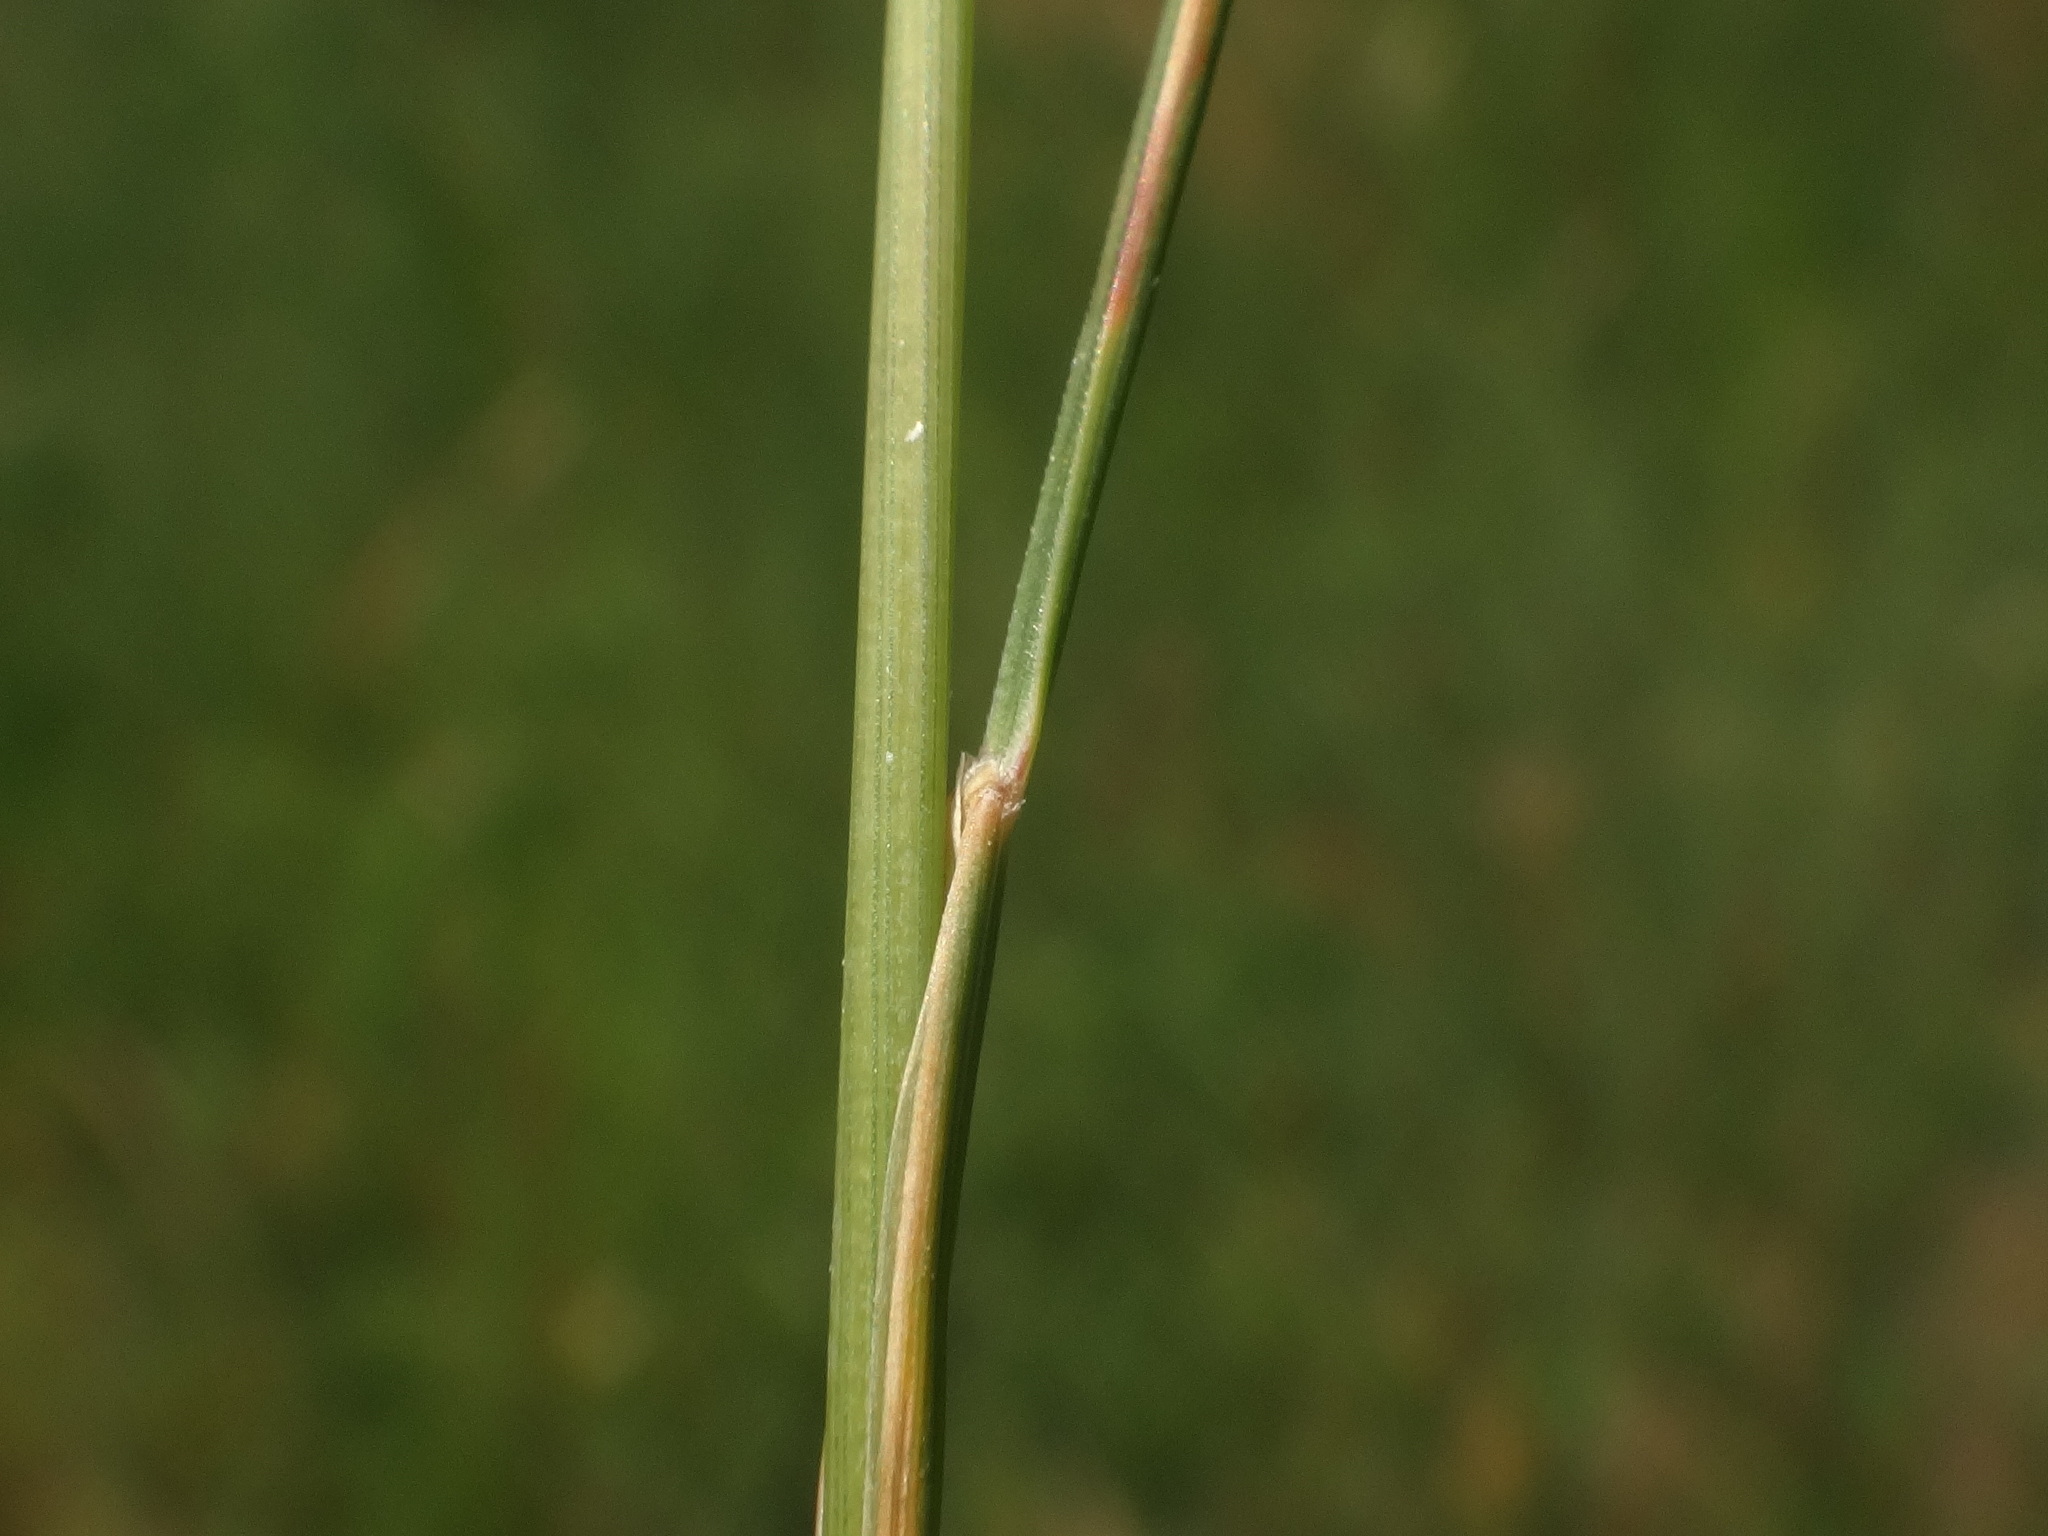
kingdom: Plantae
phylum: Tracheophyta
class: Liliopsida
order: Poales
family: Poaceae
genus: Festuca
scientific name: Festuca rupicola
